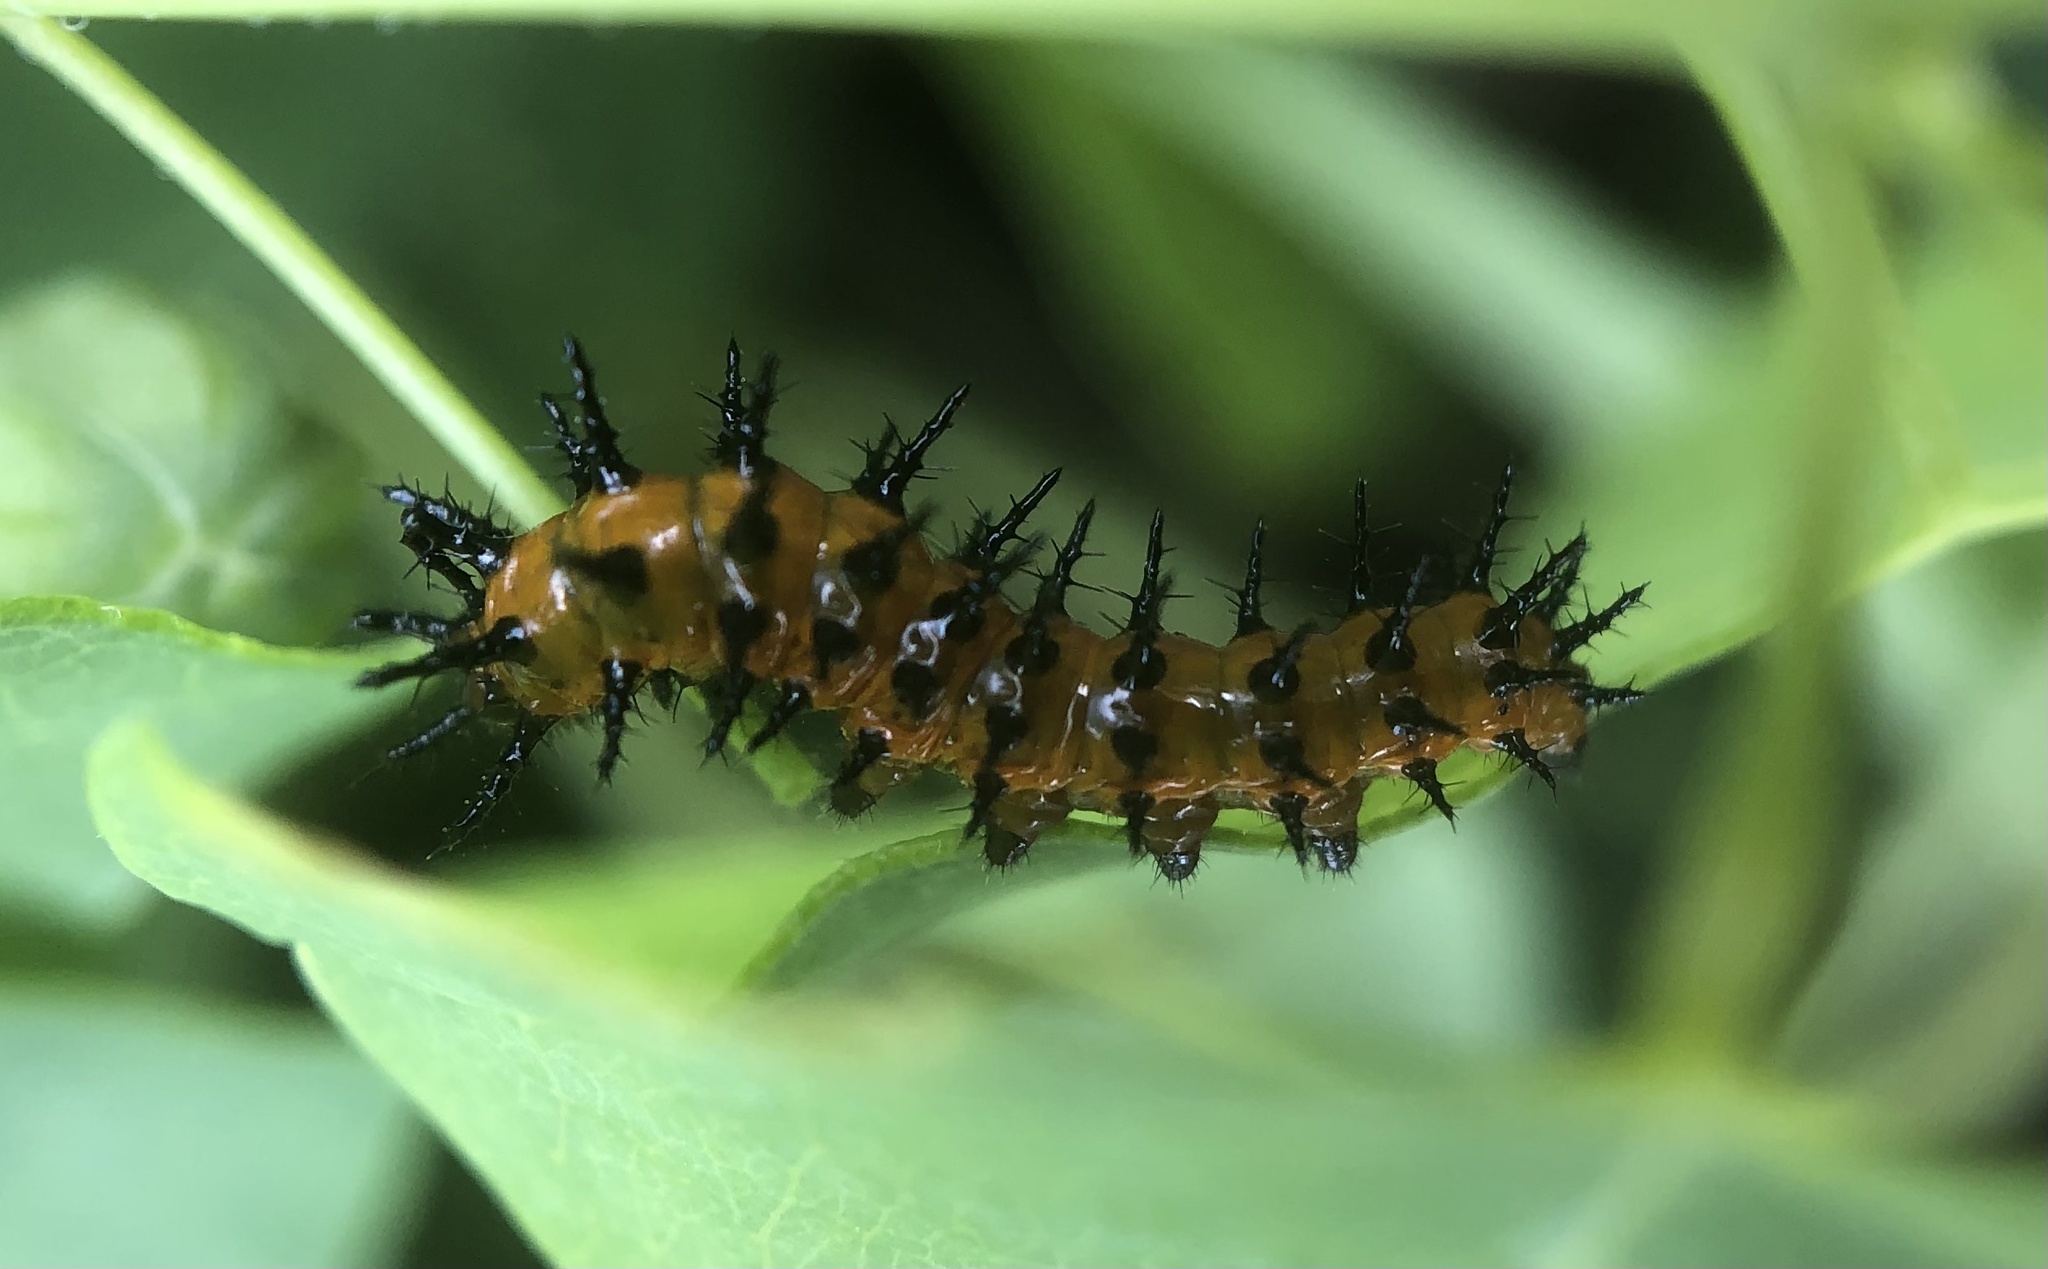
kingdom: Animalia
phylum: Arthropoda
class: Insecta
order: Lepidoptera
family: Nymphalidae
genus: Dione
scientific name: Dione vanillae
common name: Gulf fritillary
